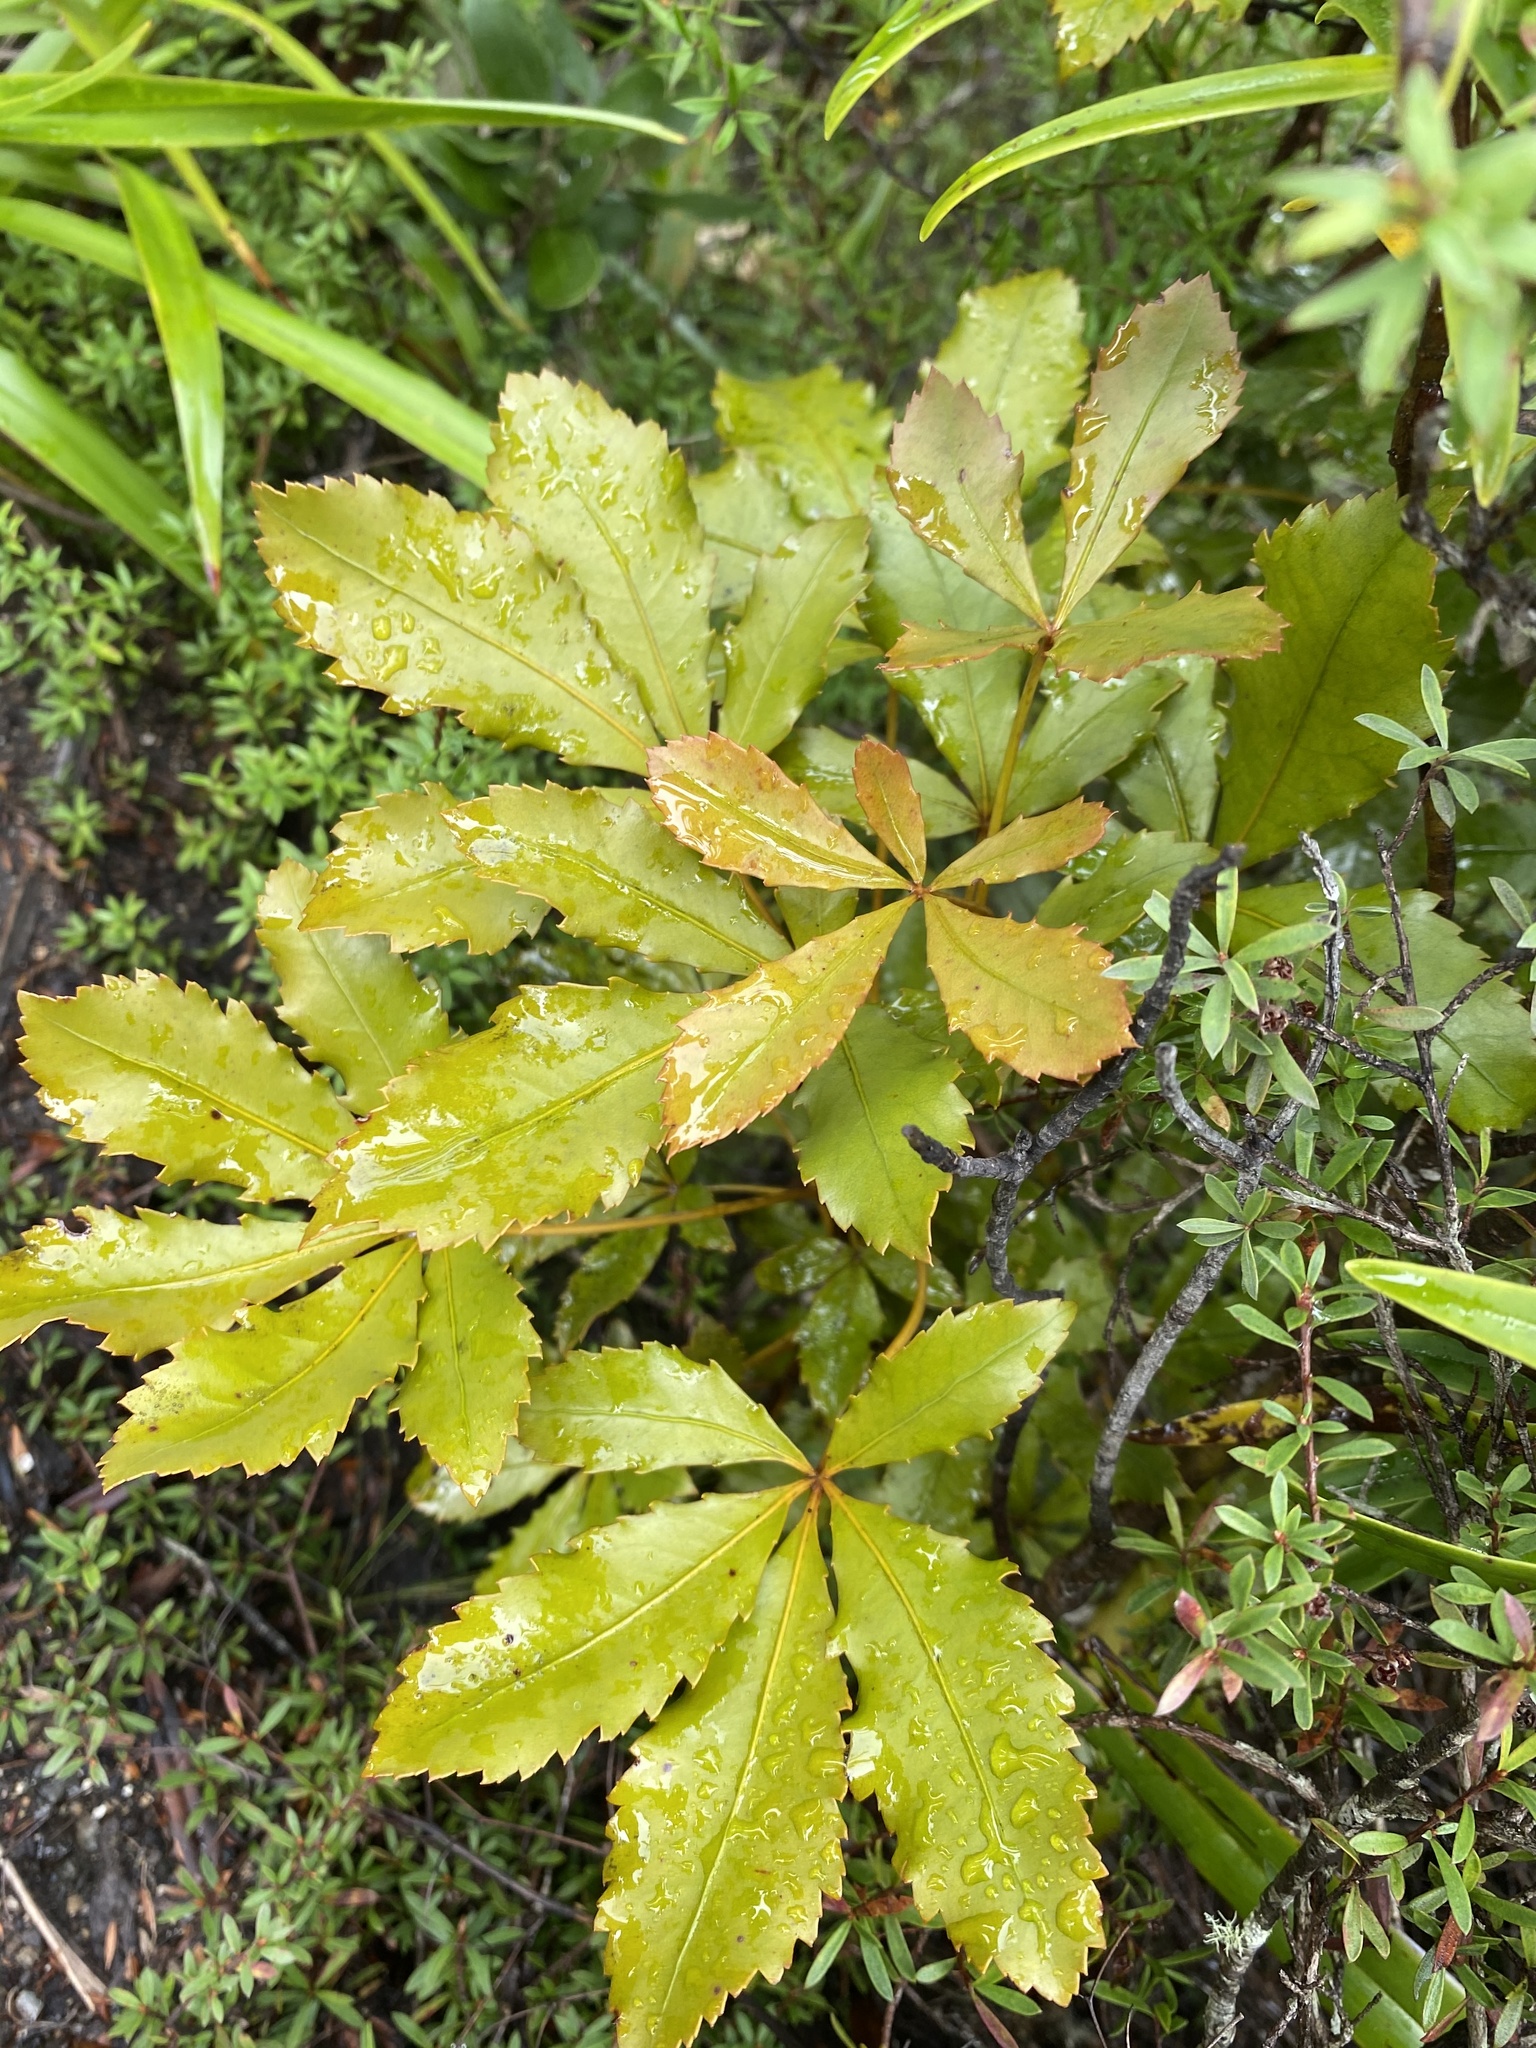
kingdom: Plantae
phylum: Tracheophyta
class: Magnoliopsida
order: Apiales
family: Araliaceae
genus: Pseudopanax
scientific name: Pseudopanax discolor
